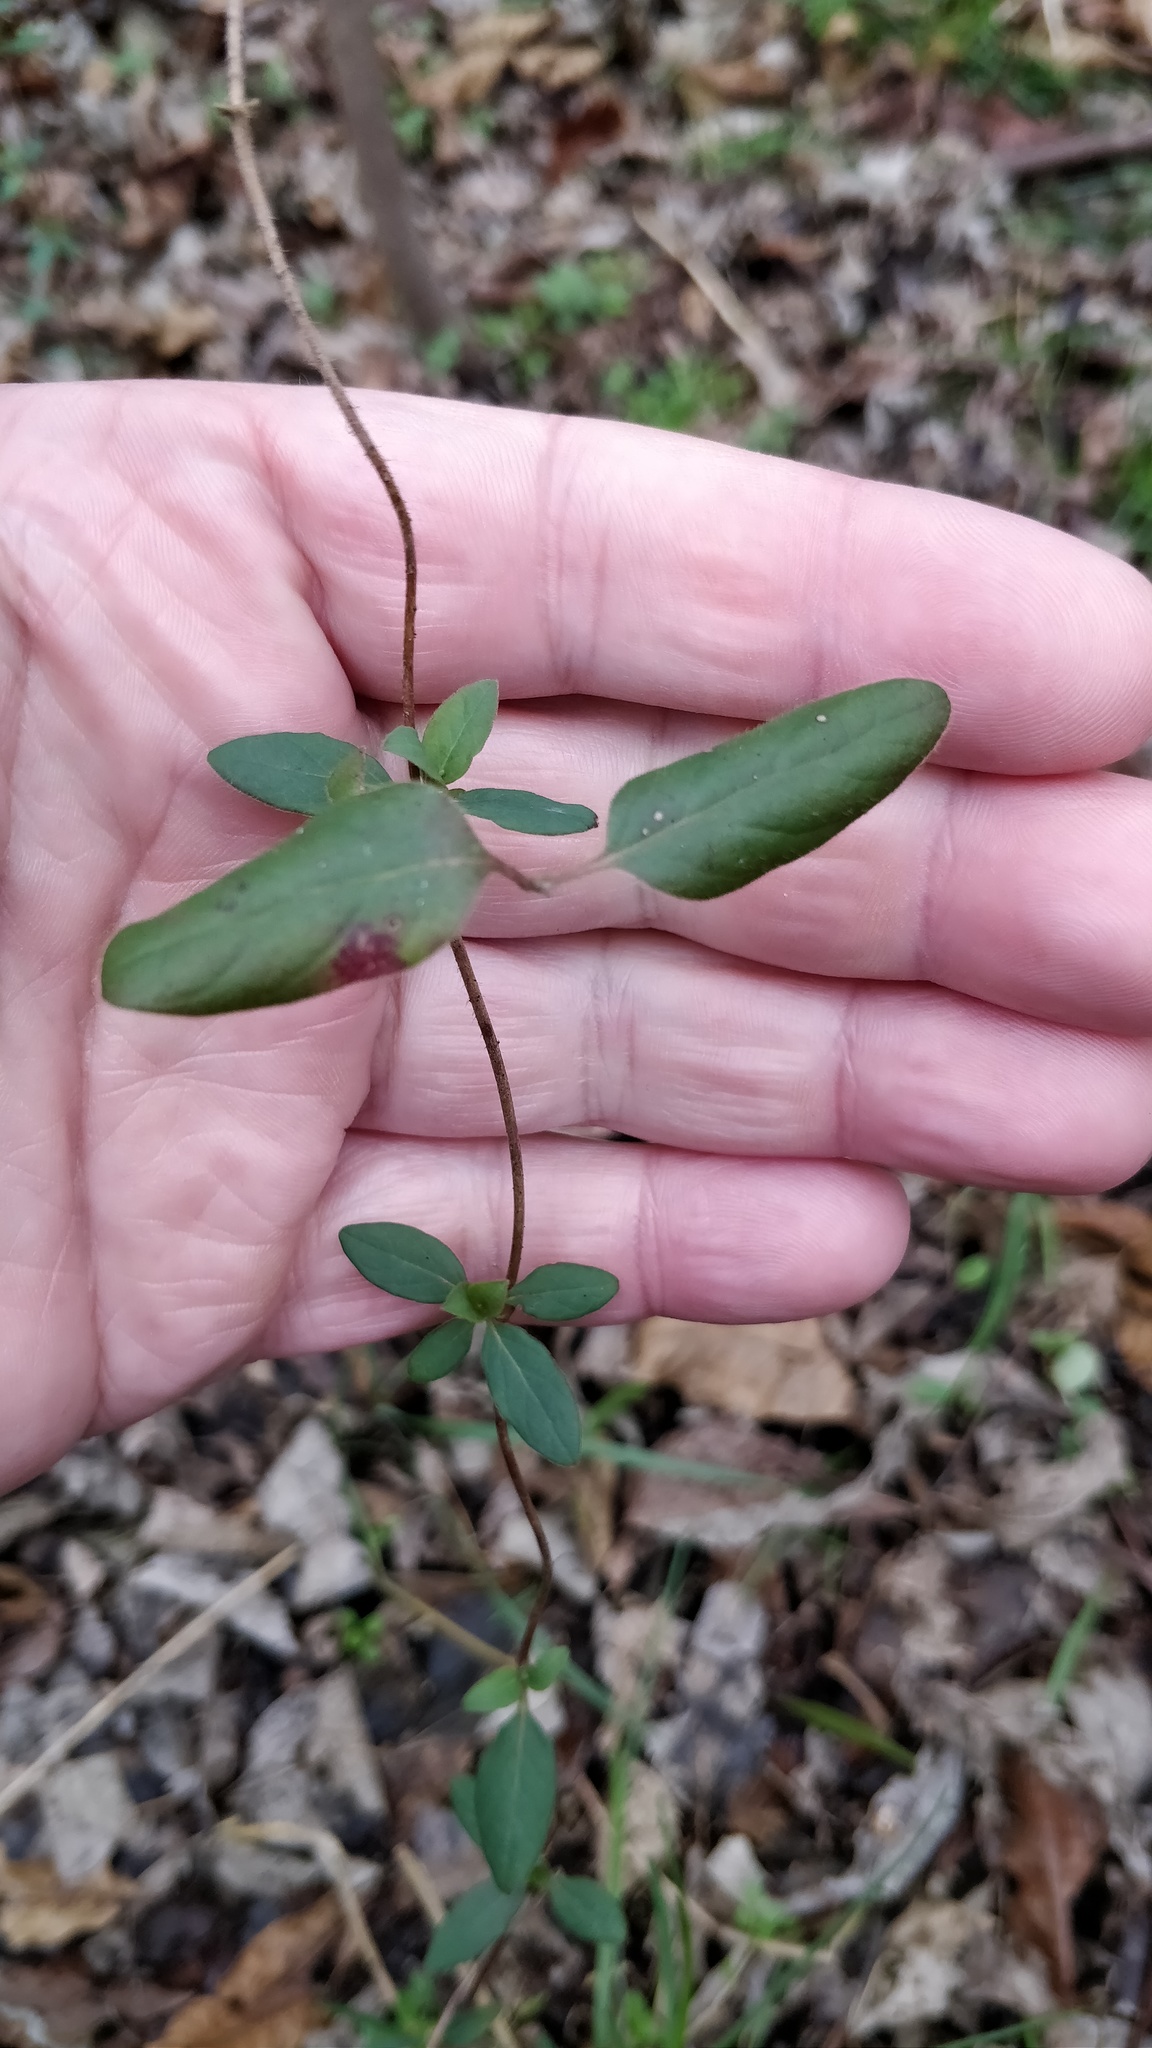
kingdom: Plantae
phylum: Tracheophyta
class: Magnoliopsida
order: Dipsacales
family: Caprifoliaceae
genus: Lonicera
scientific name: Lonicera japonica
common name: Japanese honeysuckle
